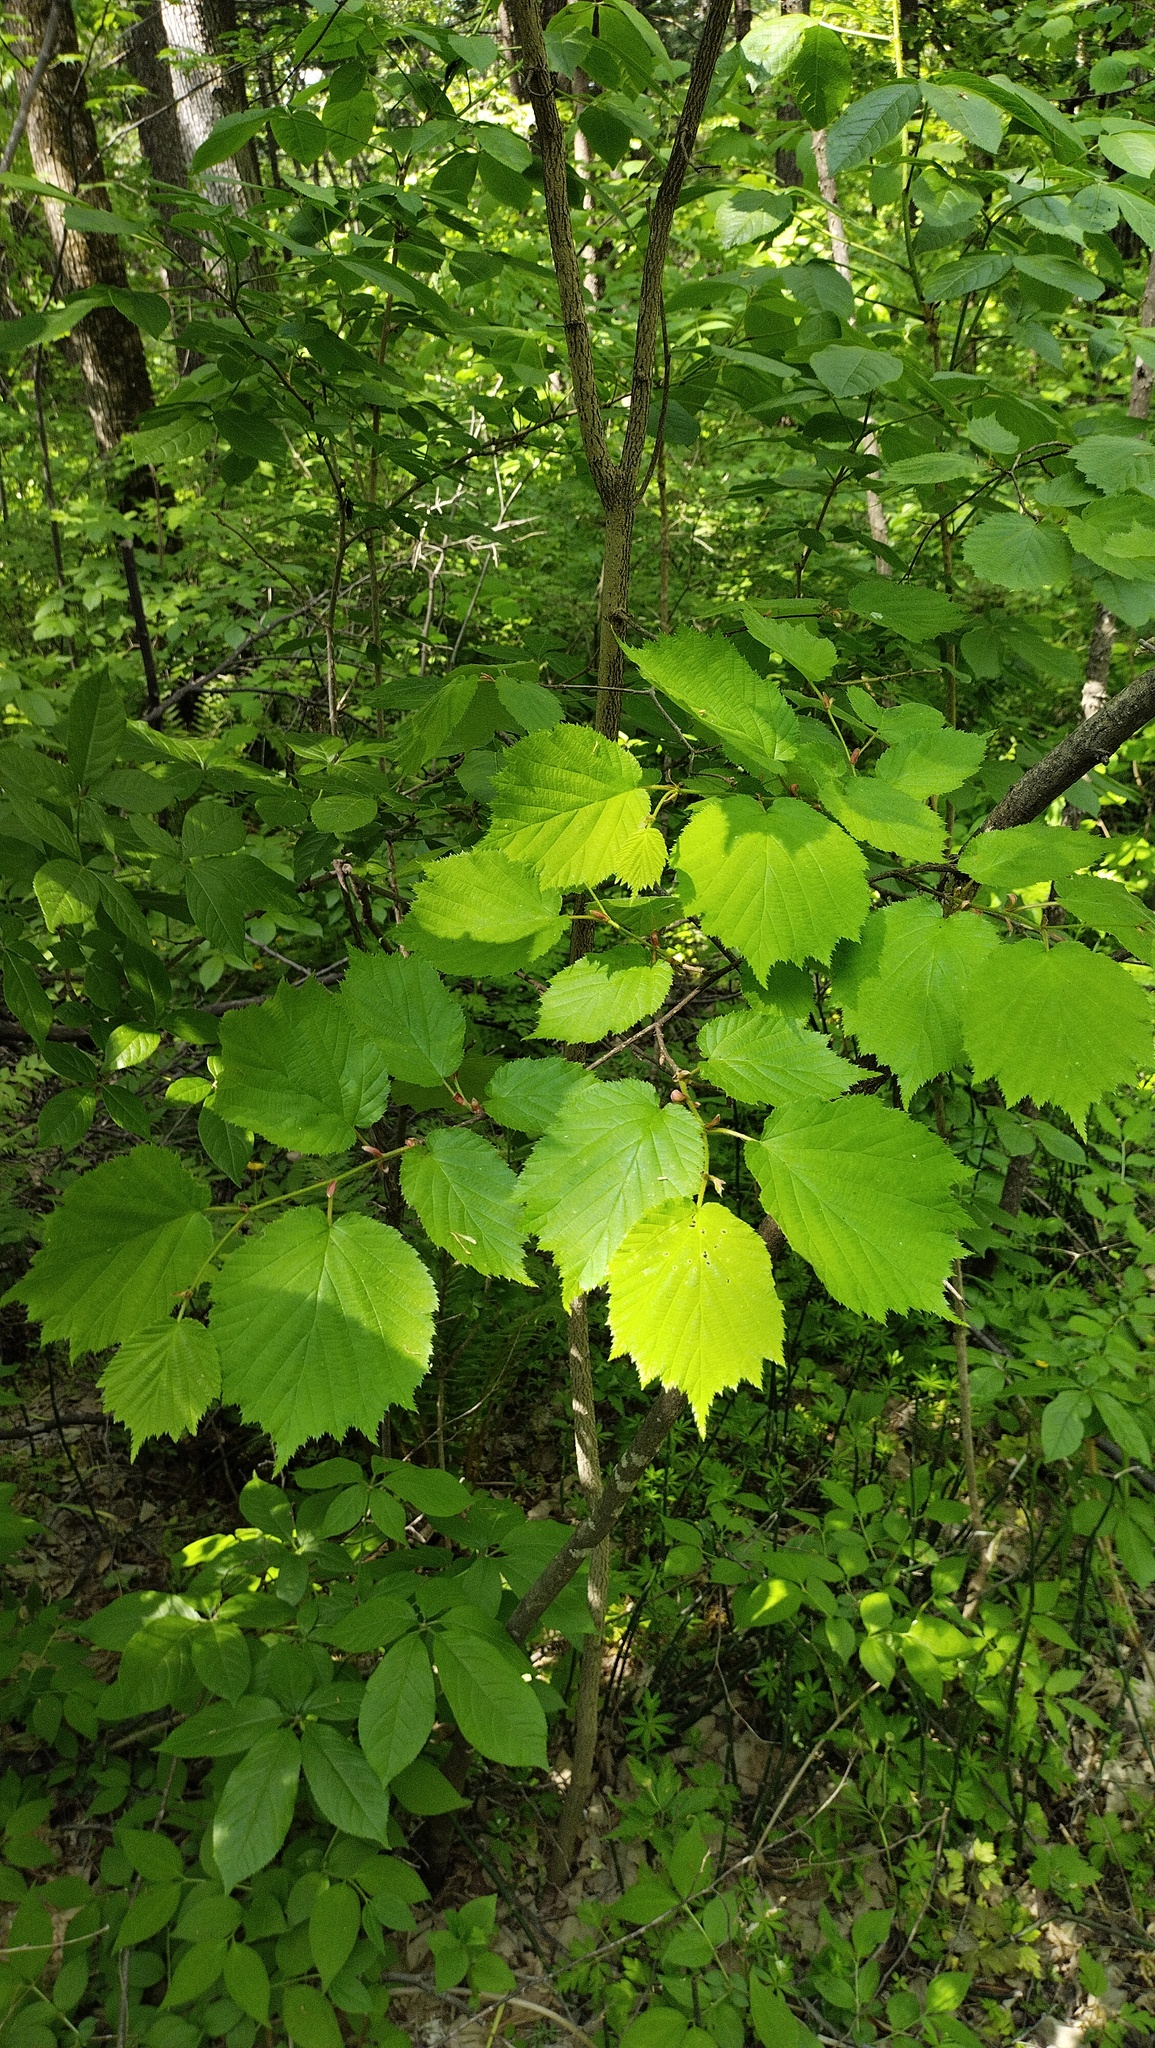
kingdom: Plantae
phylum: Tracheophyta
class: Magnoliopsida
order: Fagales
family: Betulaceae
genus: Corylus
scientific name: Corylus sieboldiana
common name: Japanese hazel
